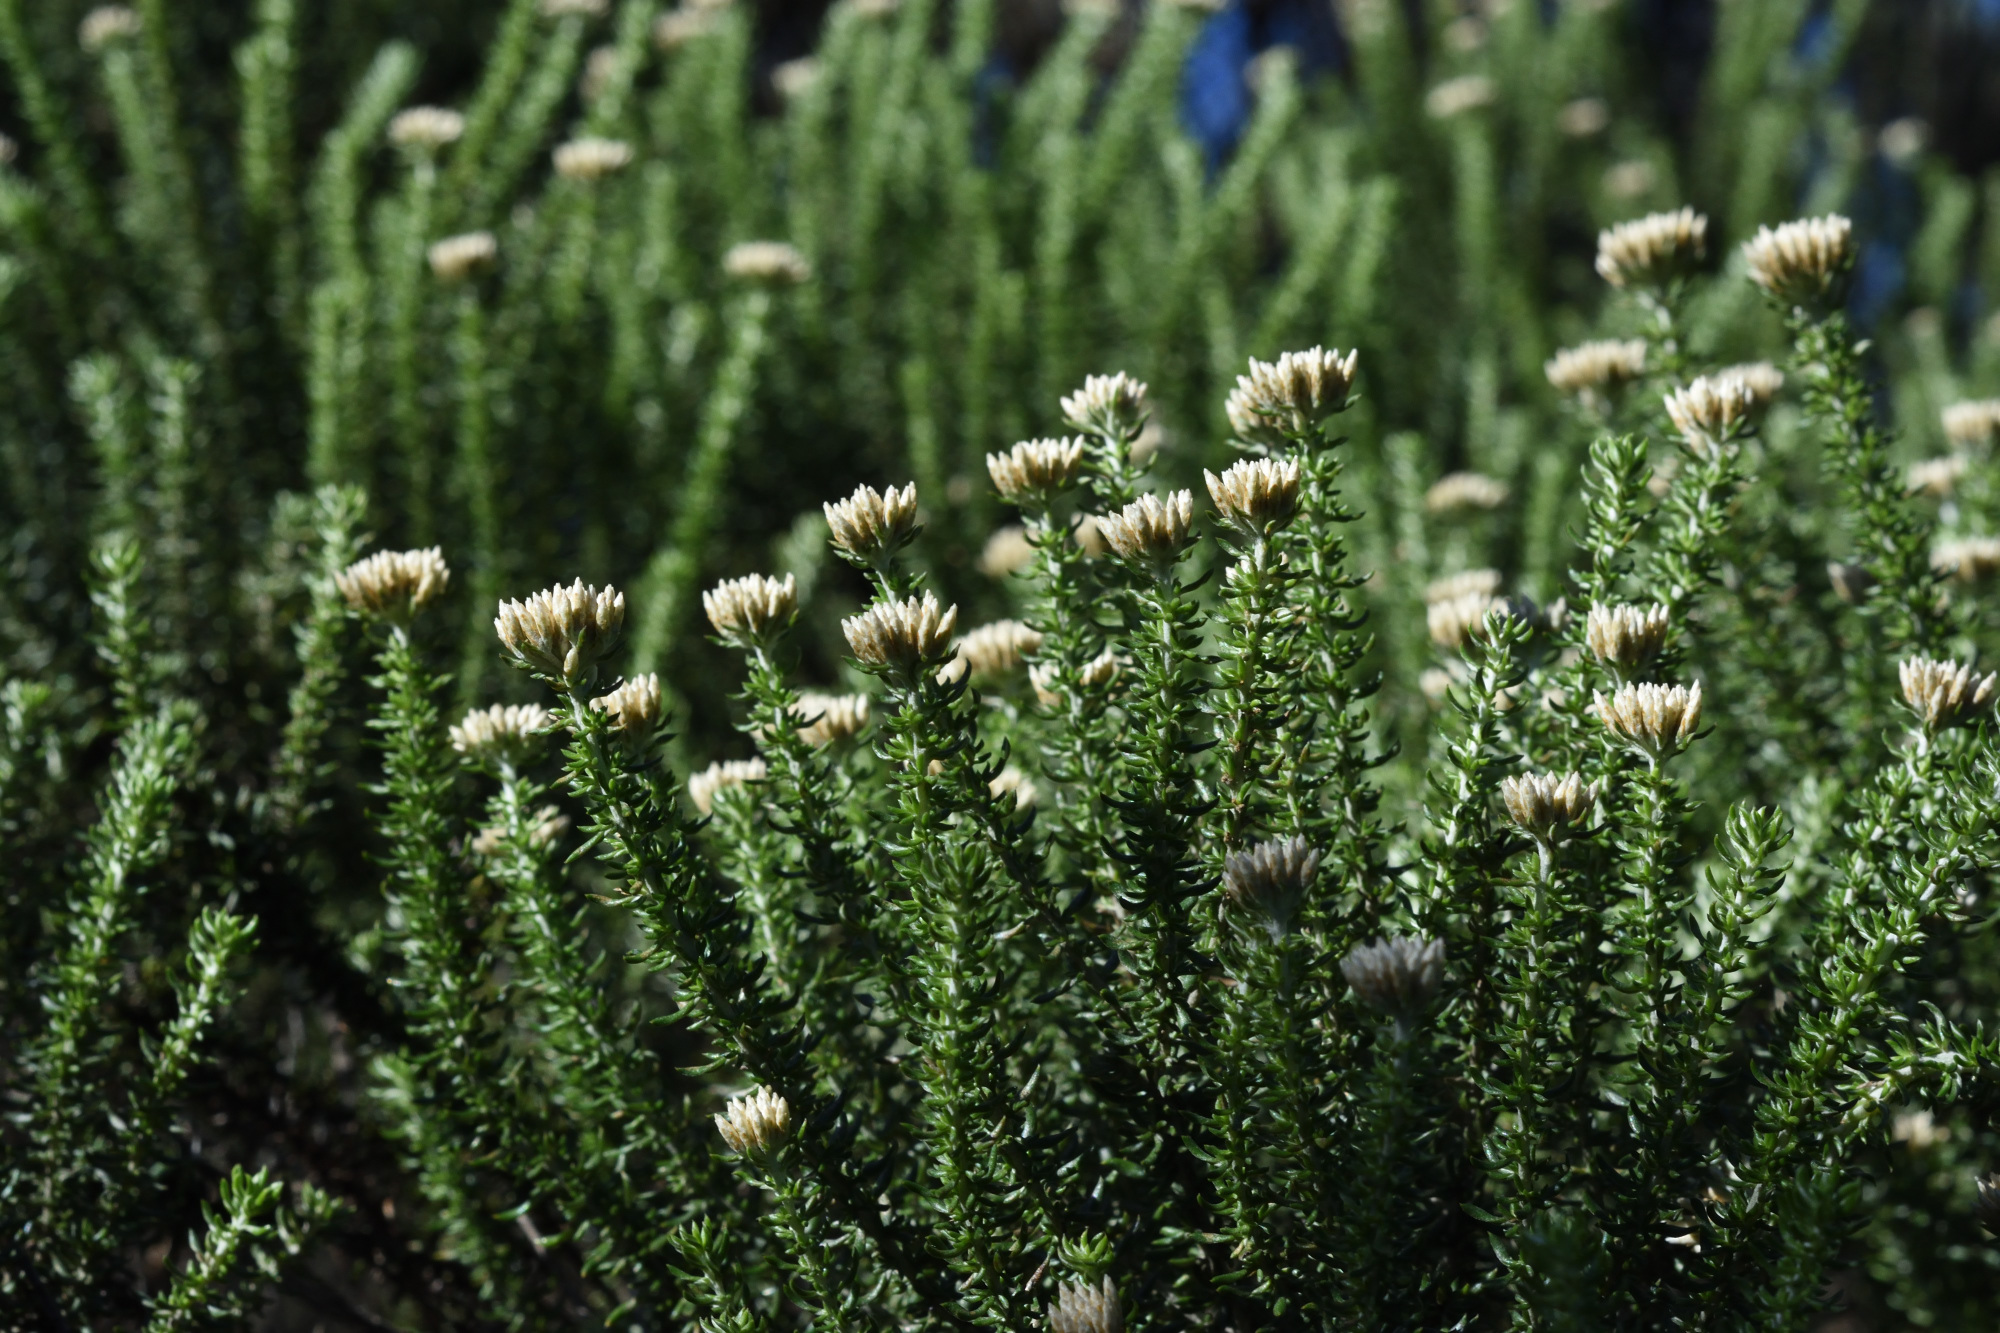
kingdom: Plantae
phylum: Tracheophyta
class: Magnoliopsida
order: Asterales
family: Asteraceae
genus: Metalasia
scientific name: Metalasia muricata
